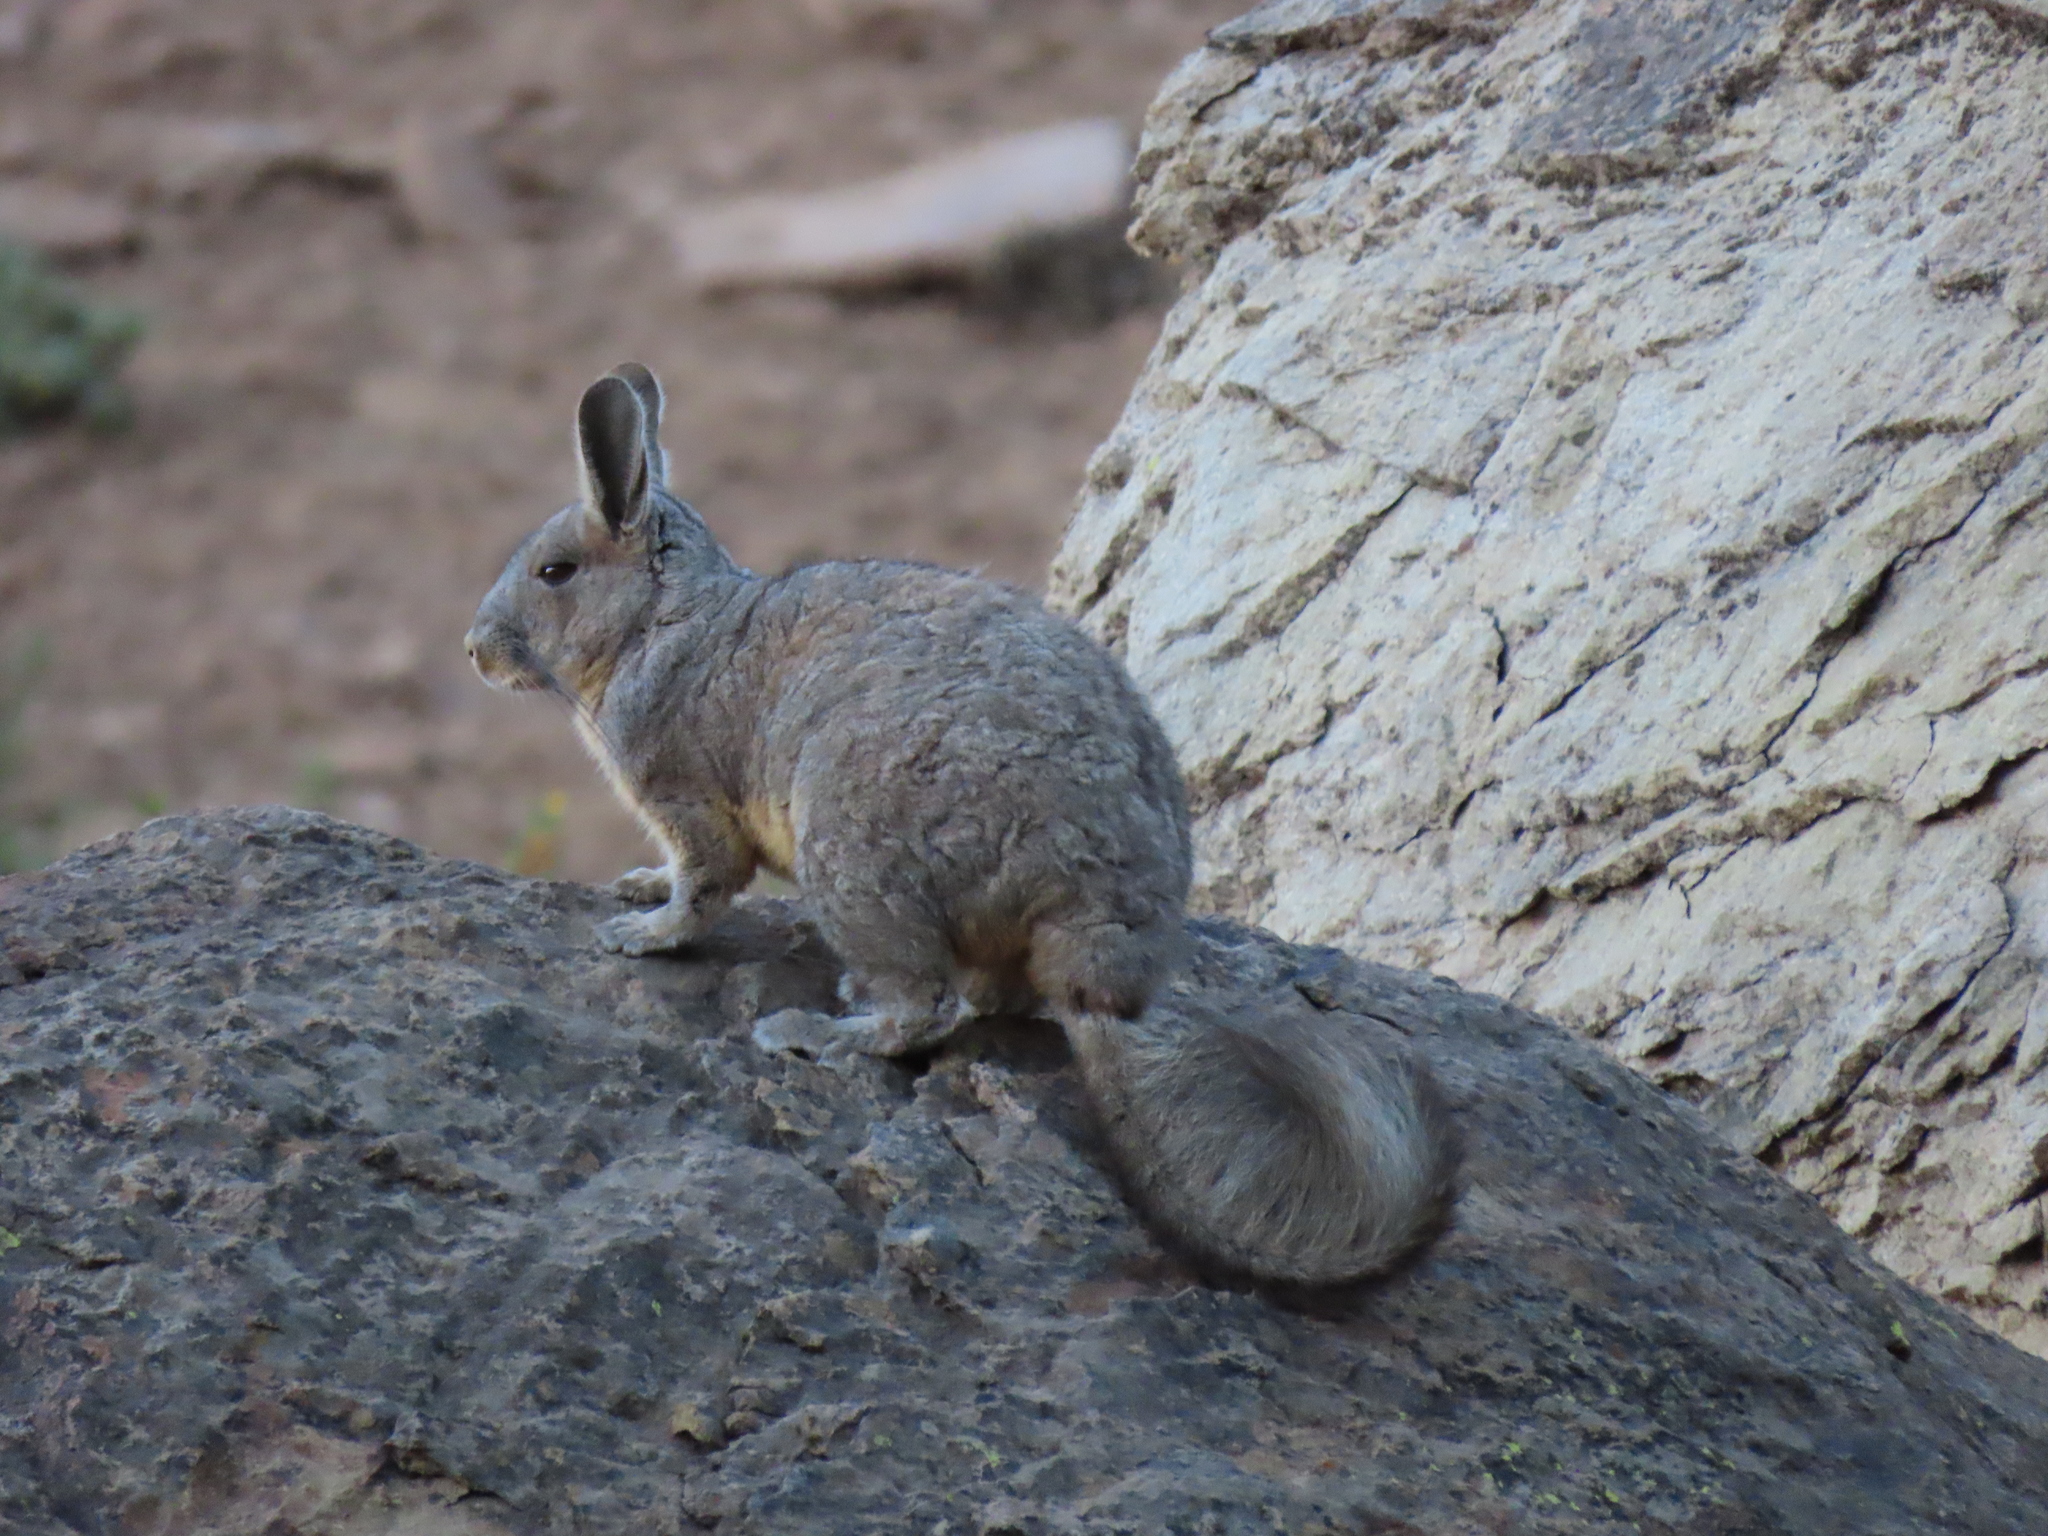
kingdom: Animalia
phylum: Chordata
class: Mammalia
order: Rodentia
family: Chinchillidae
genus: Lagidium
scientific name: Lagidium viscacia
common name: Southern viscacha
